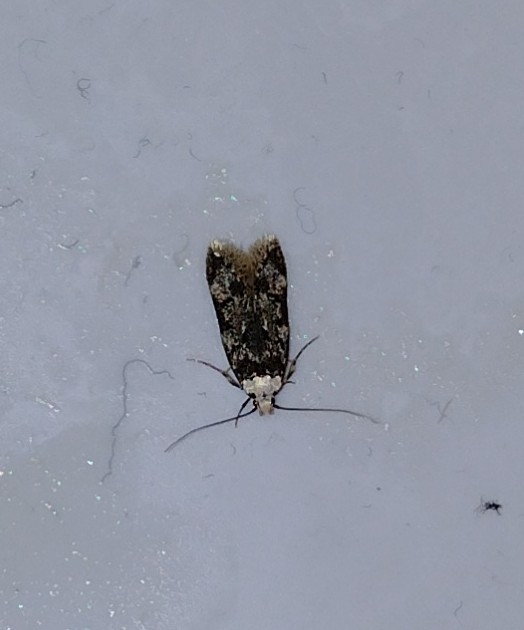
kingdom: Animalia
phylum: Arthropoda
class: Insecta
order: Lepidoptera
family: Oecophoridae
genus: Endrosis
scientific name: Endrosis sarcitrella
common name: White-shouldered house moth
